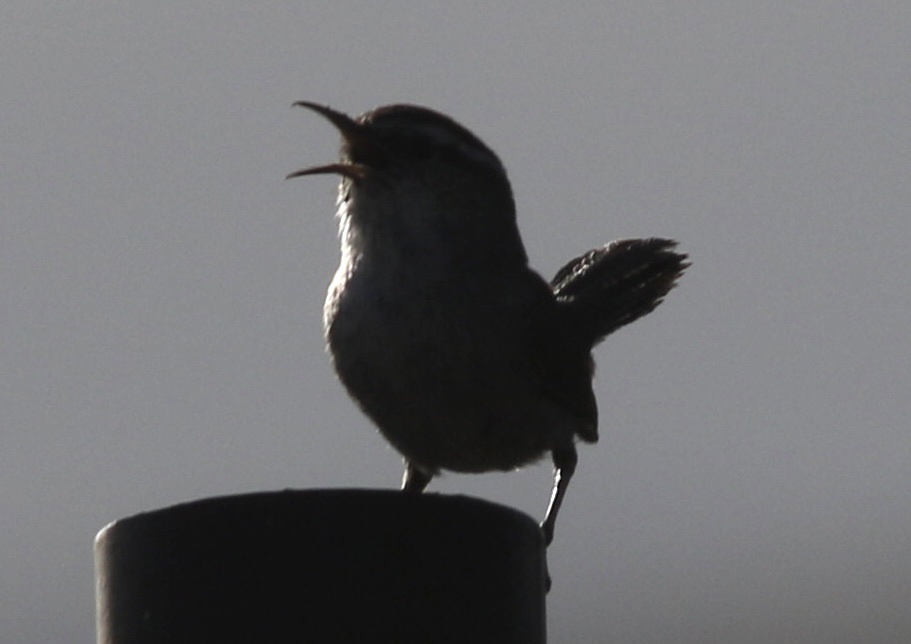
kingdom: Animalia
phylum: Chordata
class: Aves
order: Passeriformes
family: Troglodytidae
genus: Thryomanes
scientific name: Thryomanes bewickii
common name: Bewick's wren
